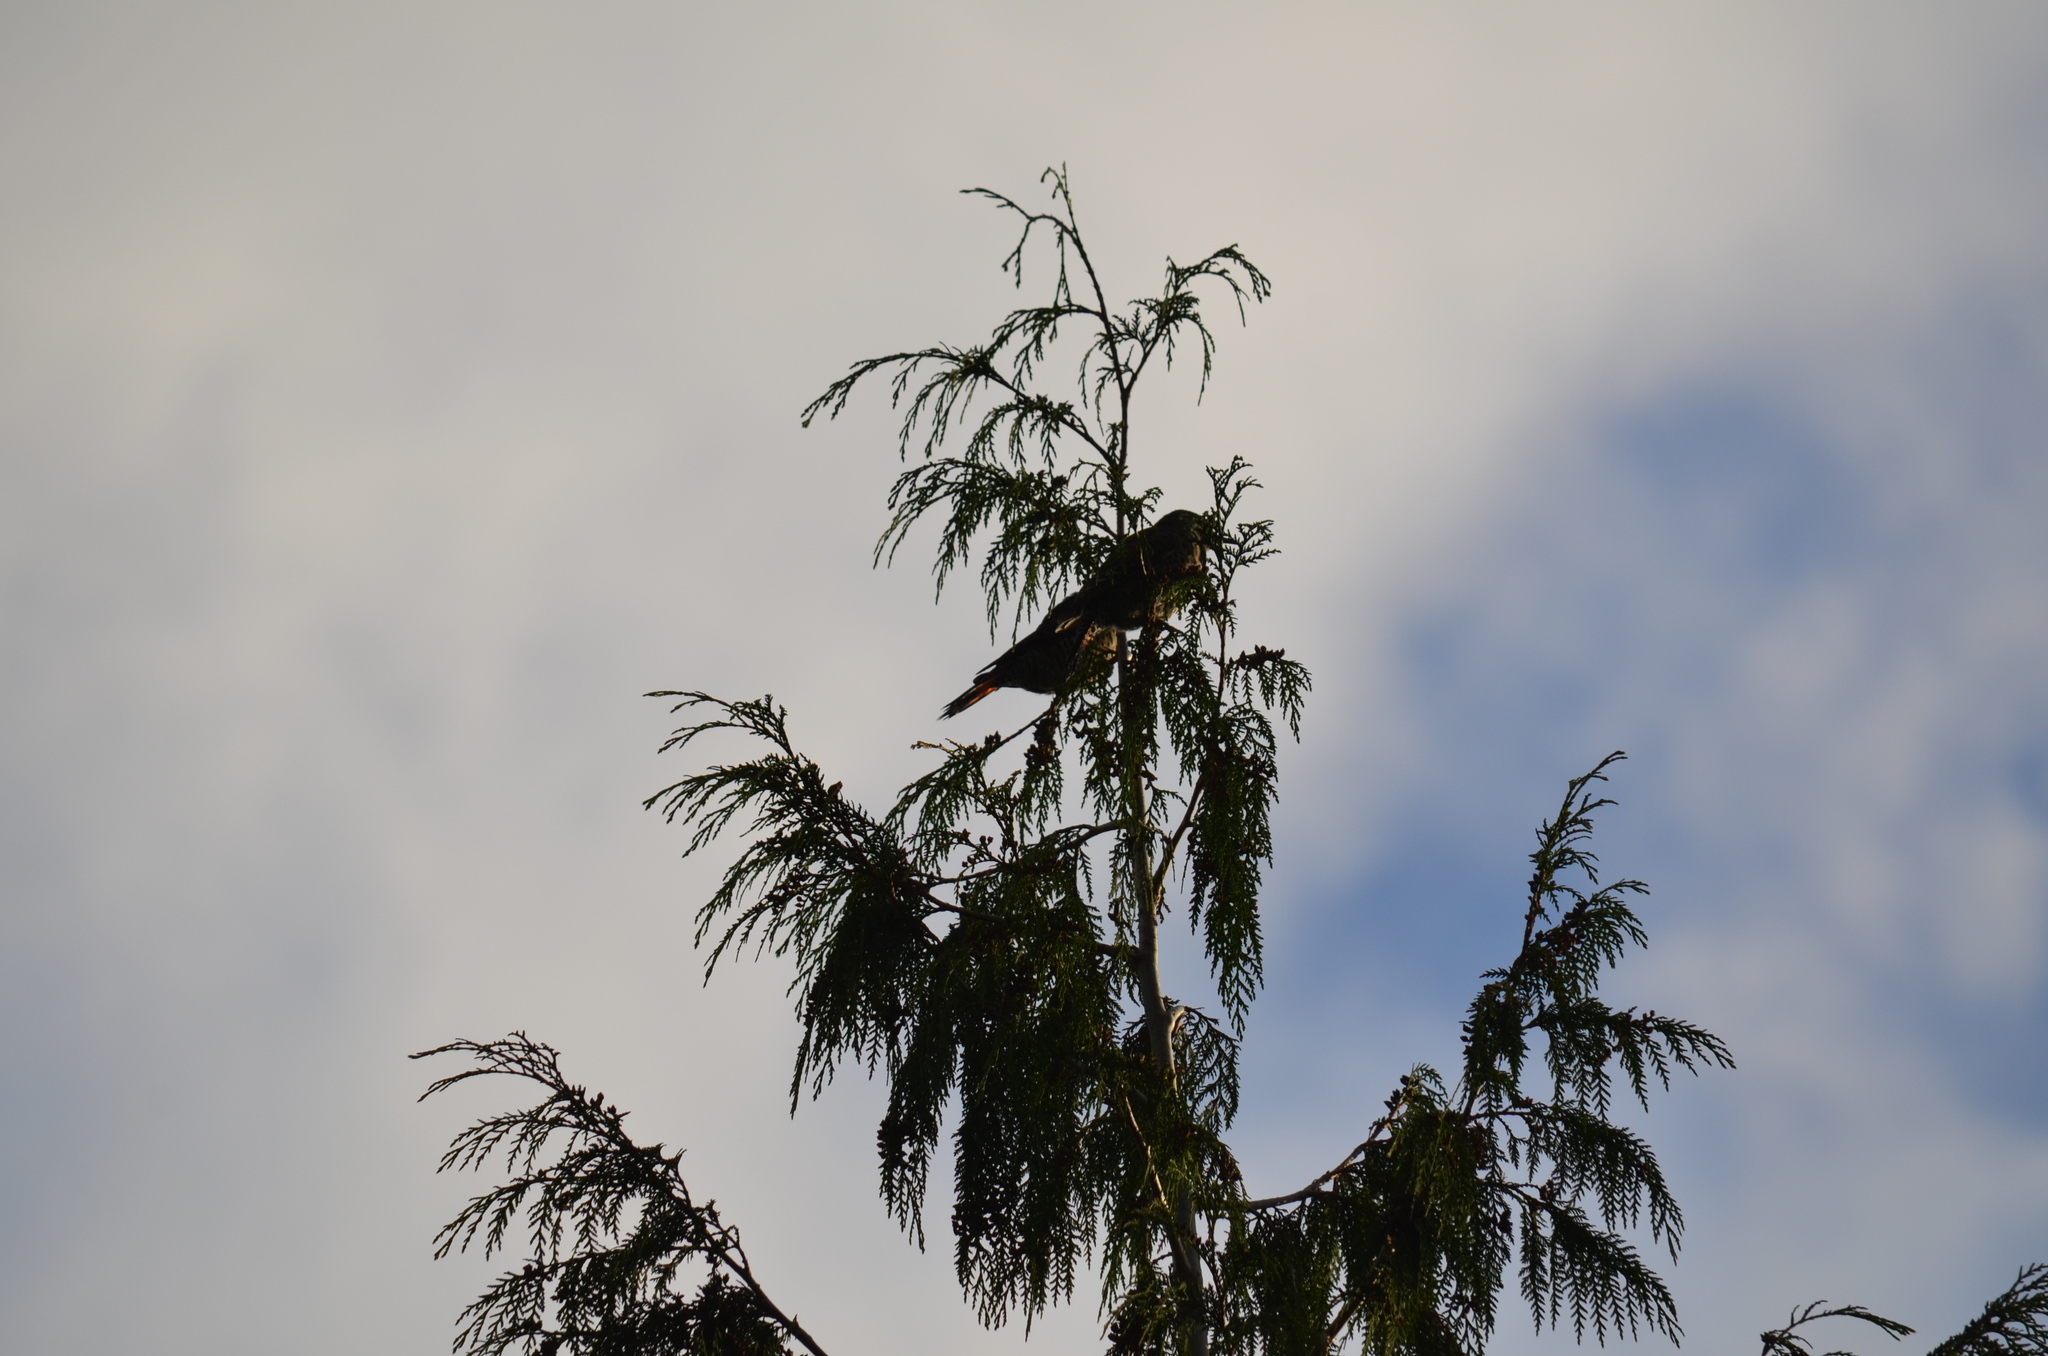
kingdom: Animalia
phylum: Chordata
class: Aves
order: Piciformes
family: Picidae
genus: Colaptes
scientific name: Colaptes auratus
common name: Northern flicker
